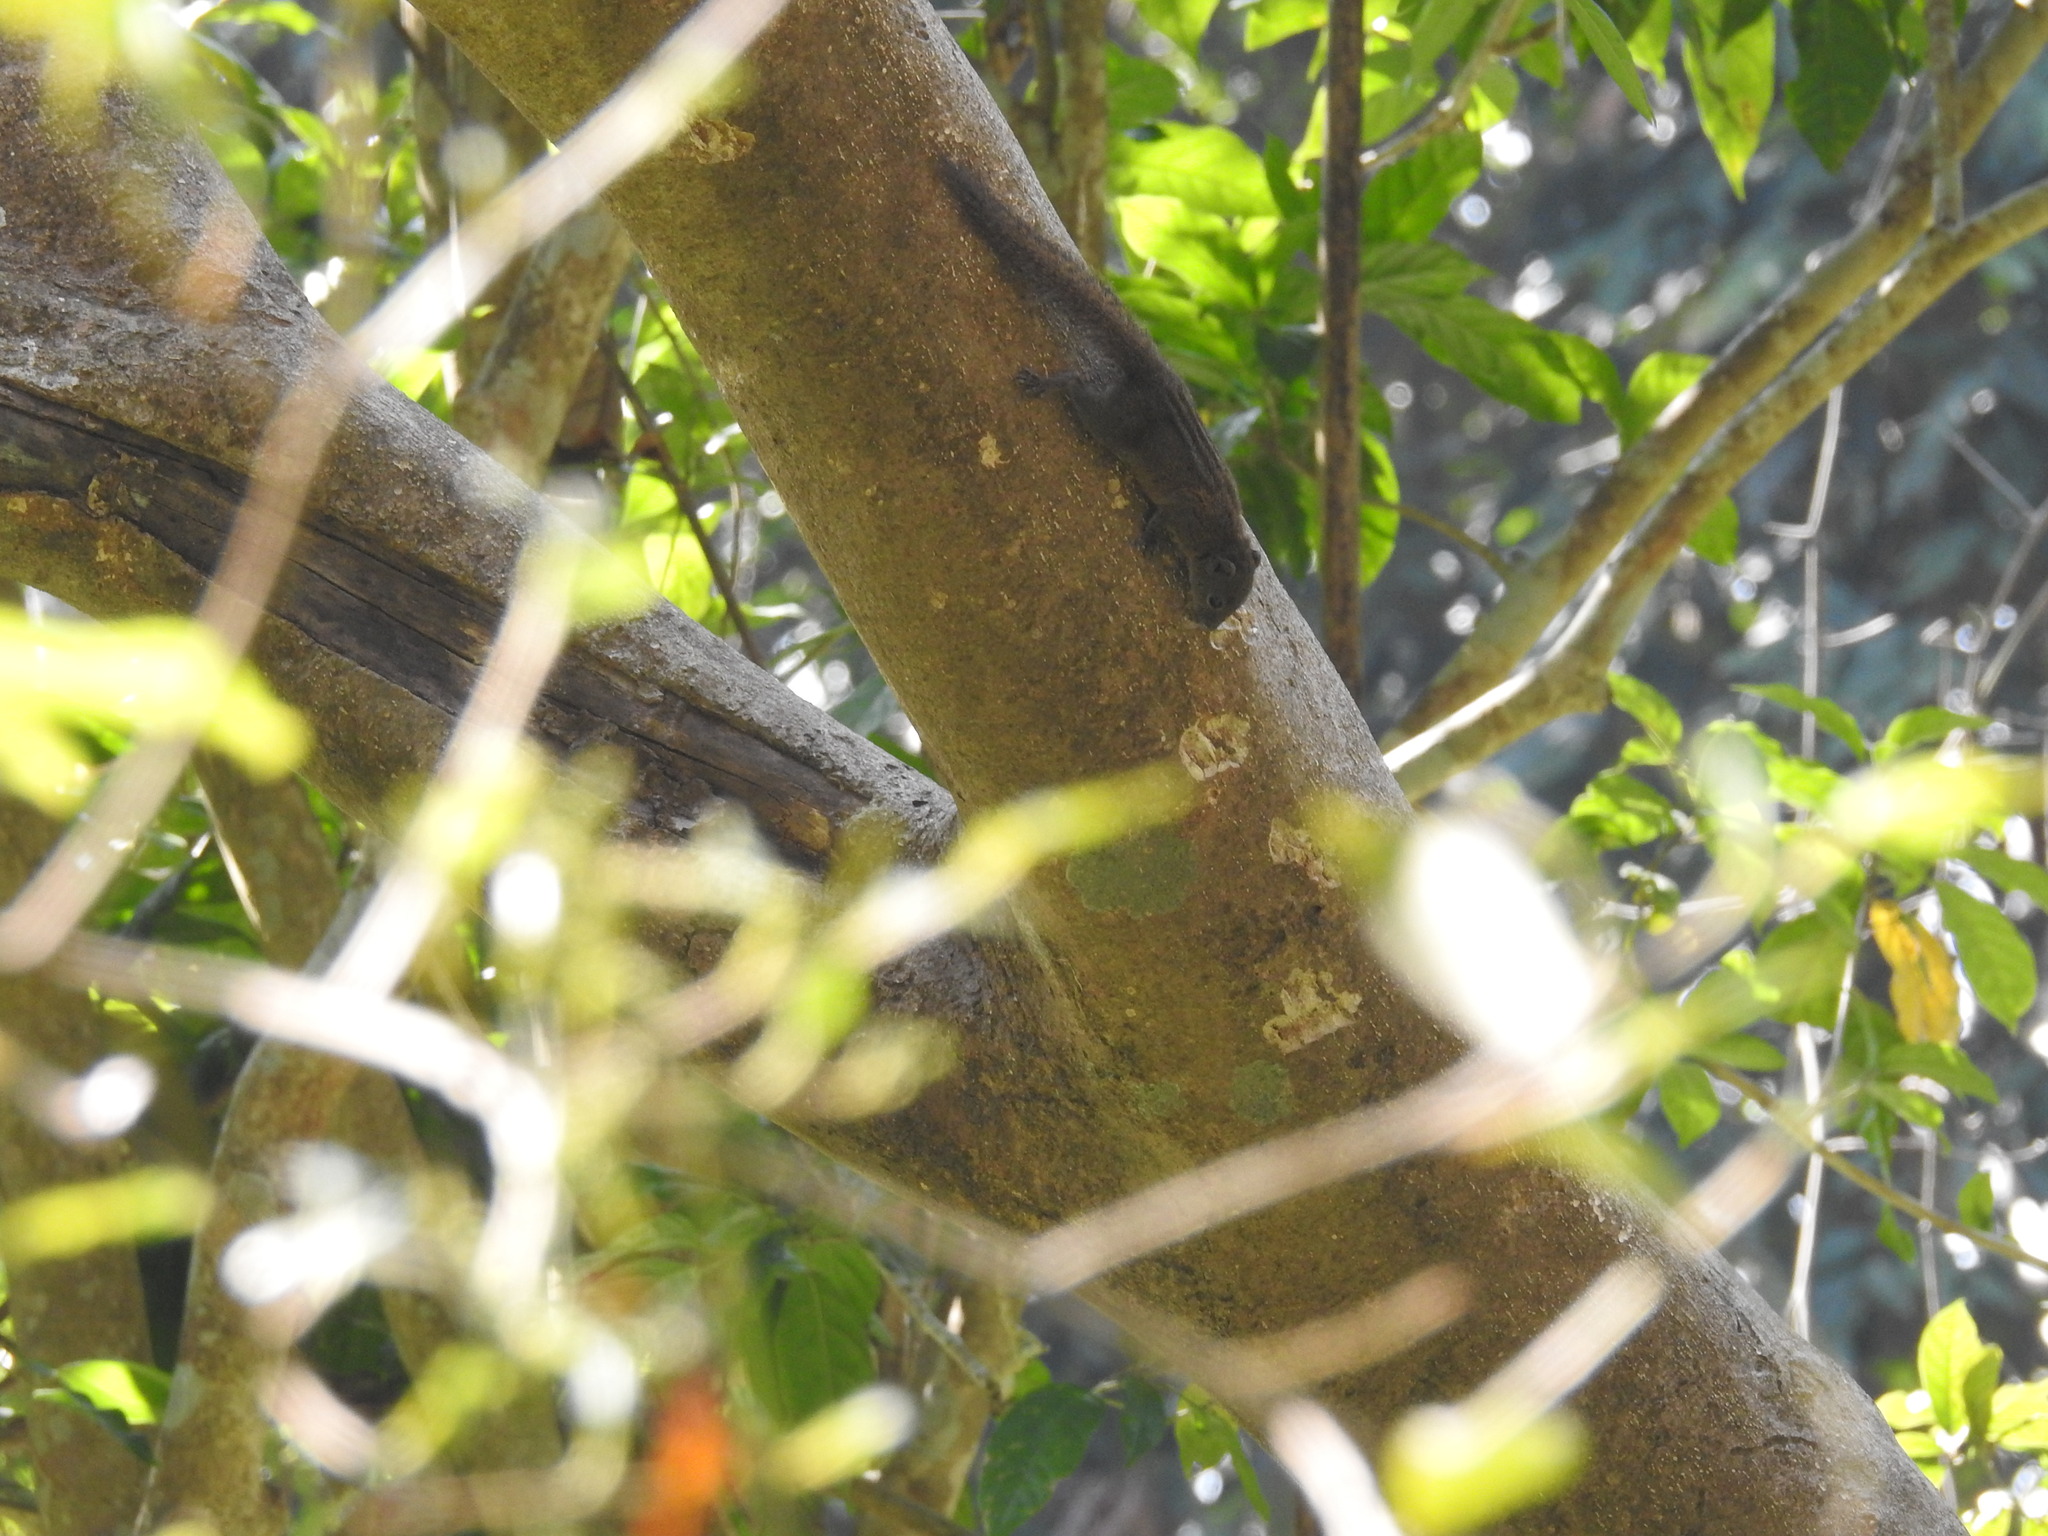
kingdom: Animalia
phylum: Chordata
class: Mammalia
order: Rodentia
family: Sciuridae
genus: Funambulus
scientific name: Funambulus sublineatus
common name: Dusky palm squirrel
